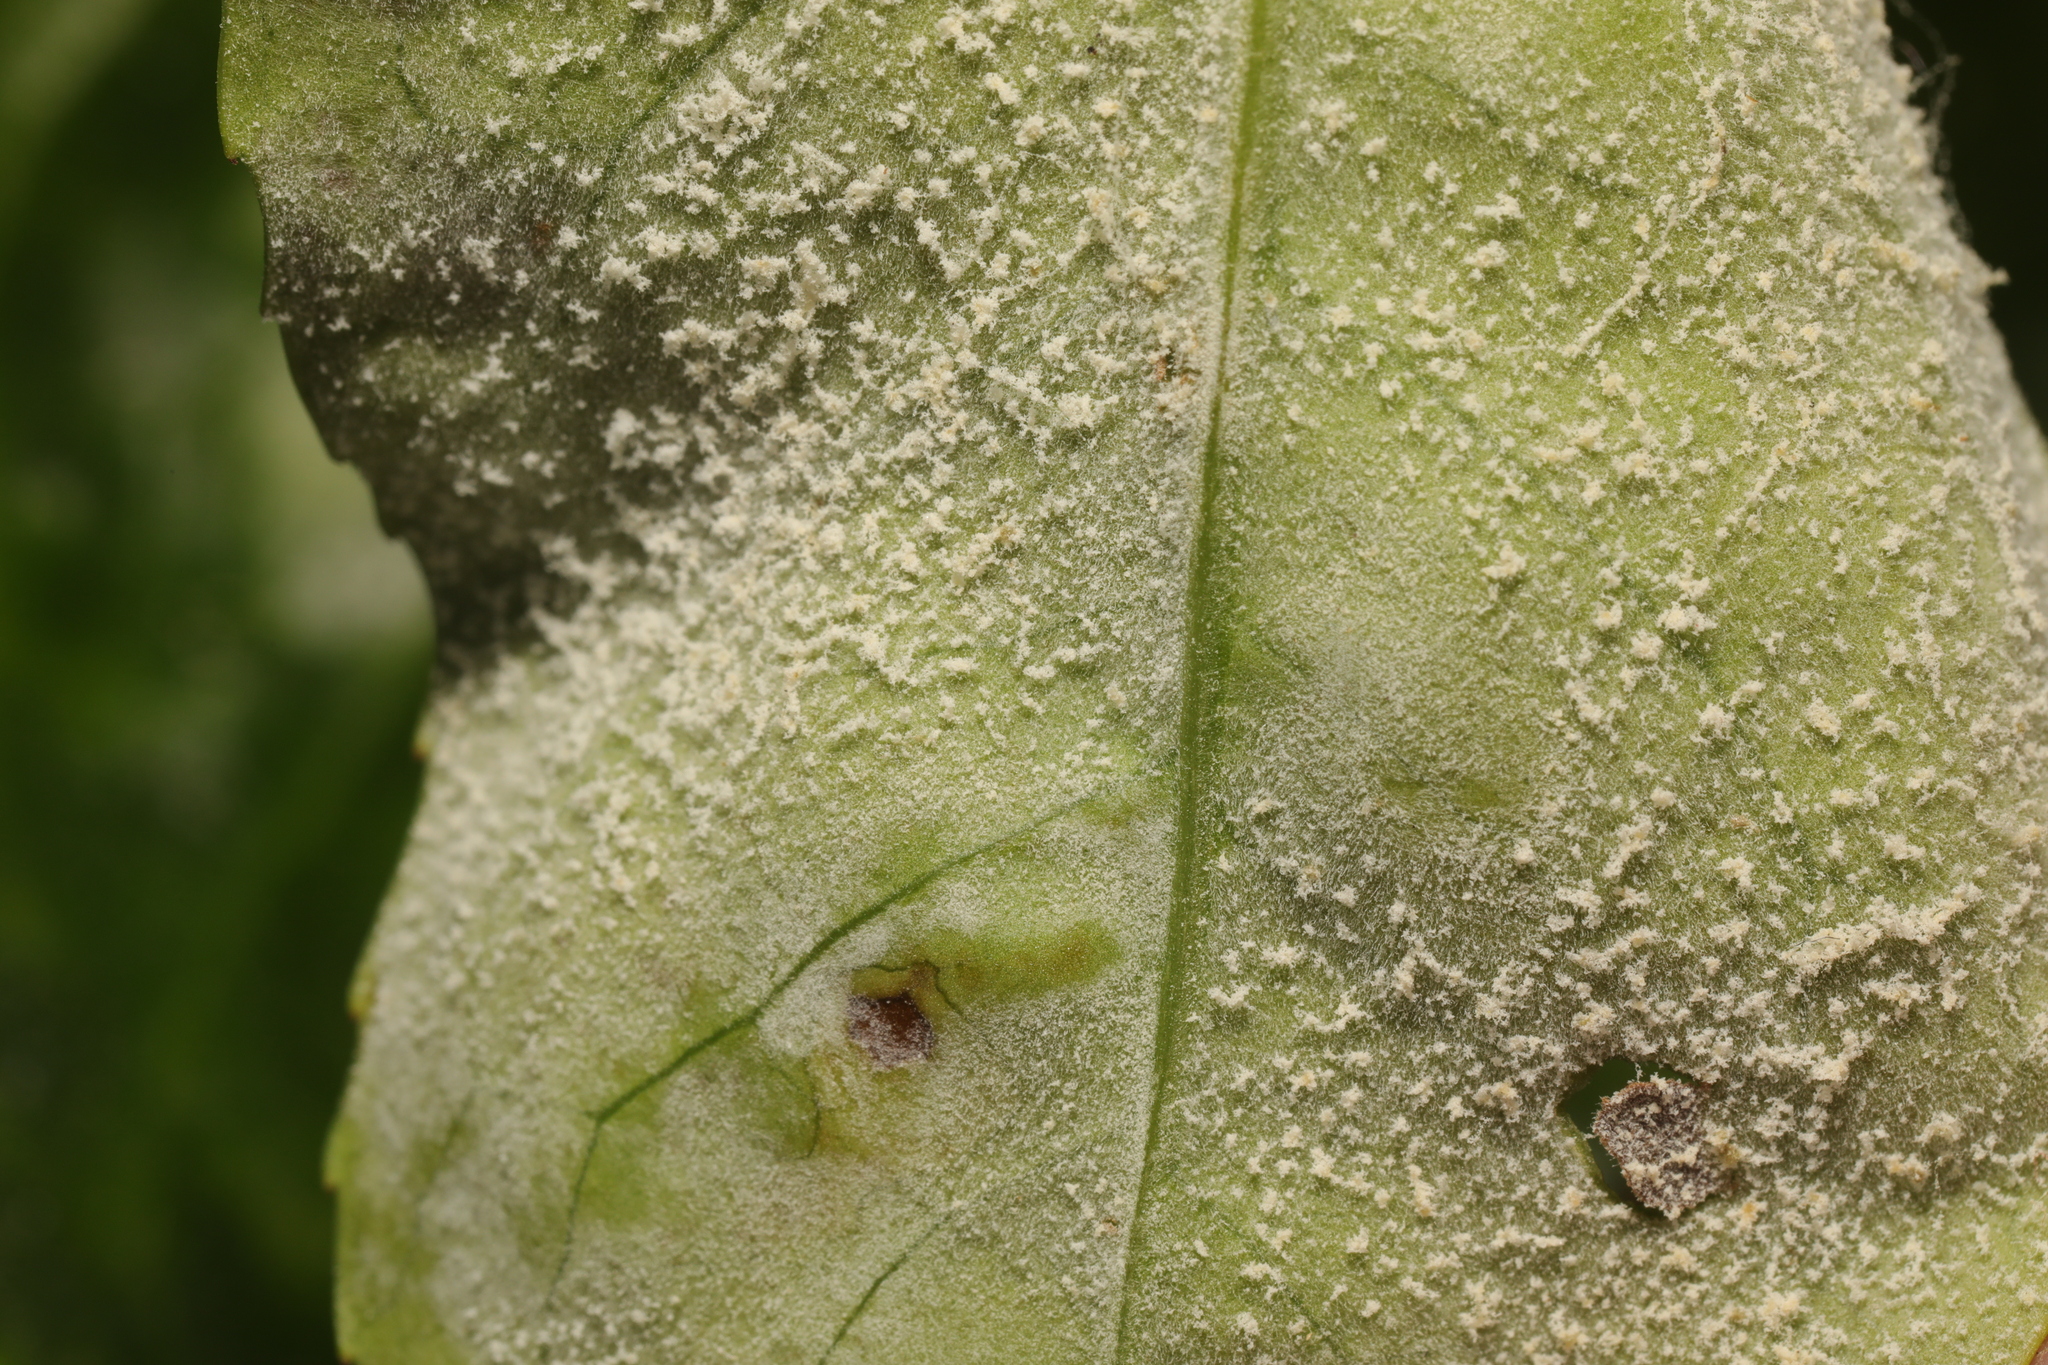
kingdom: Fungi
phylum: Ascomycota
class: Leotiomycetes
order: Helotiales
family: Erysiphaceae
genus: Podosphaera
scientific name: Podosphaera pannosa
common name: Rose mildew
